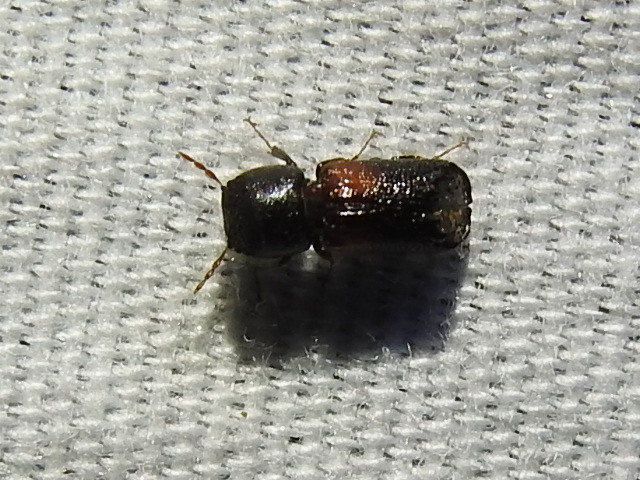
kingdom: Animalia
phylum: Arthropoda
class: Insecta
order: Coleoptera
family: Bostrichidae
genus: Xylobiops
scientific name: Xylobiops basilaris
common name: Red-shouldered bostrichid
